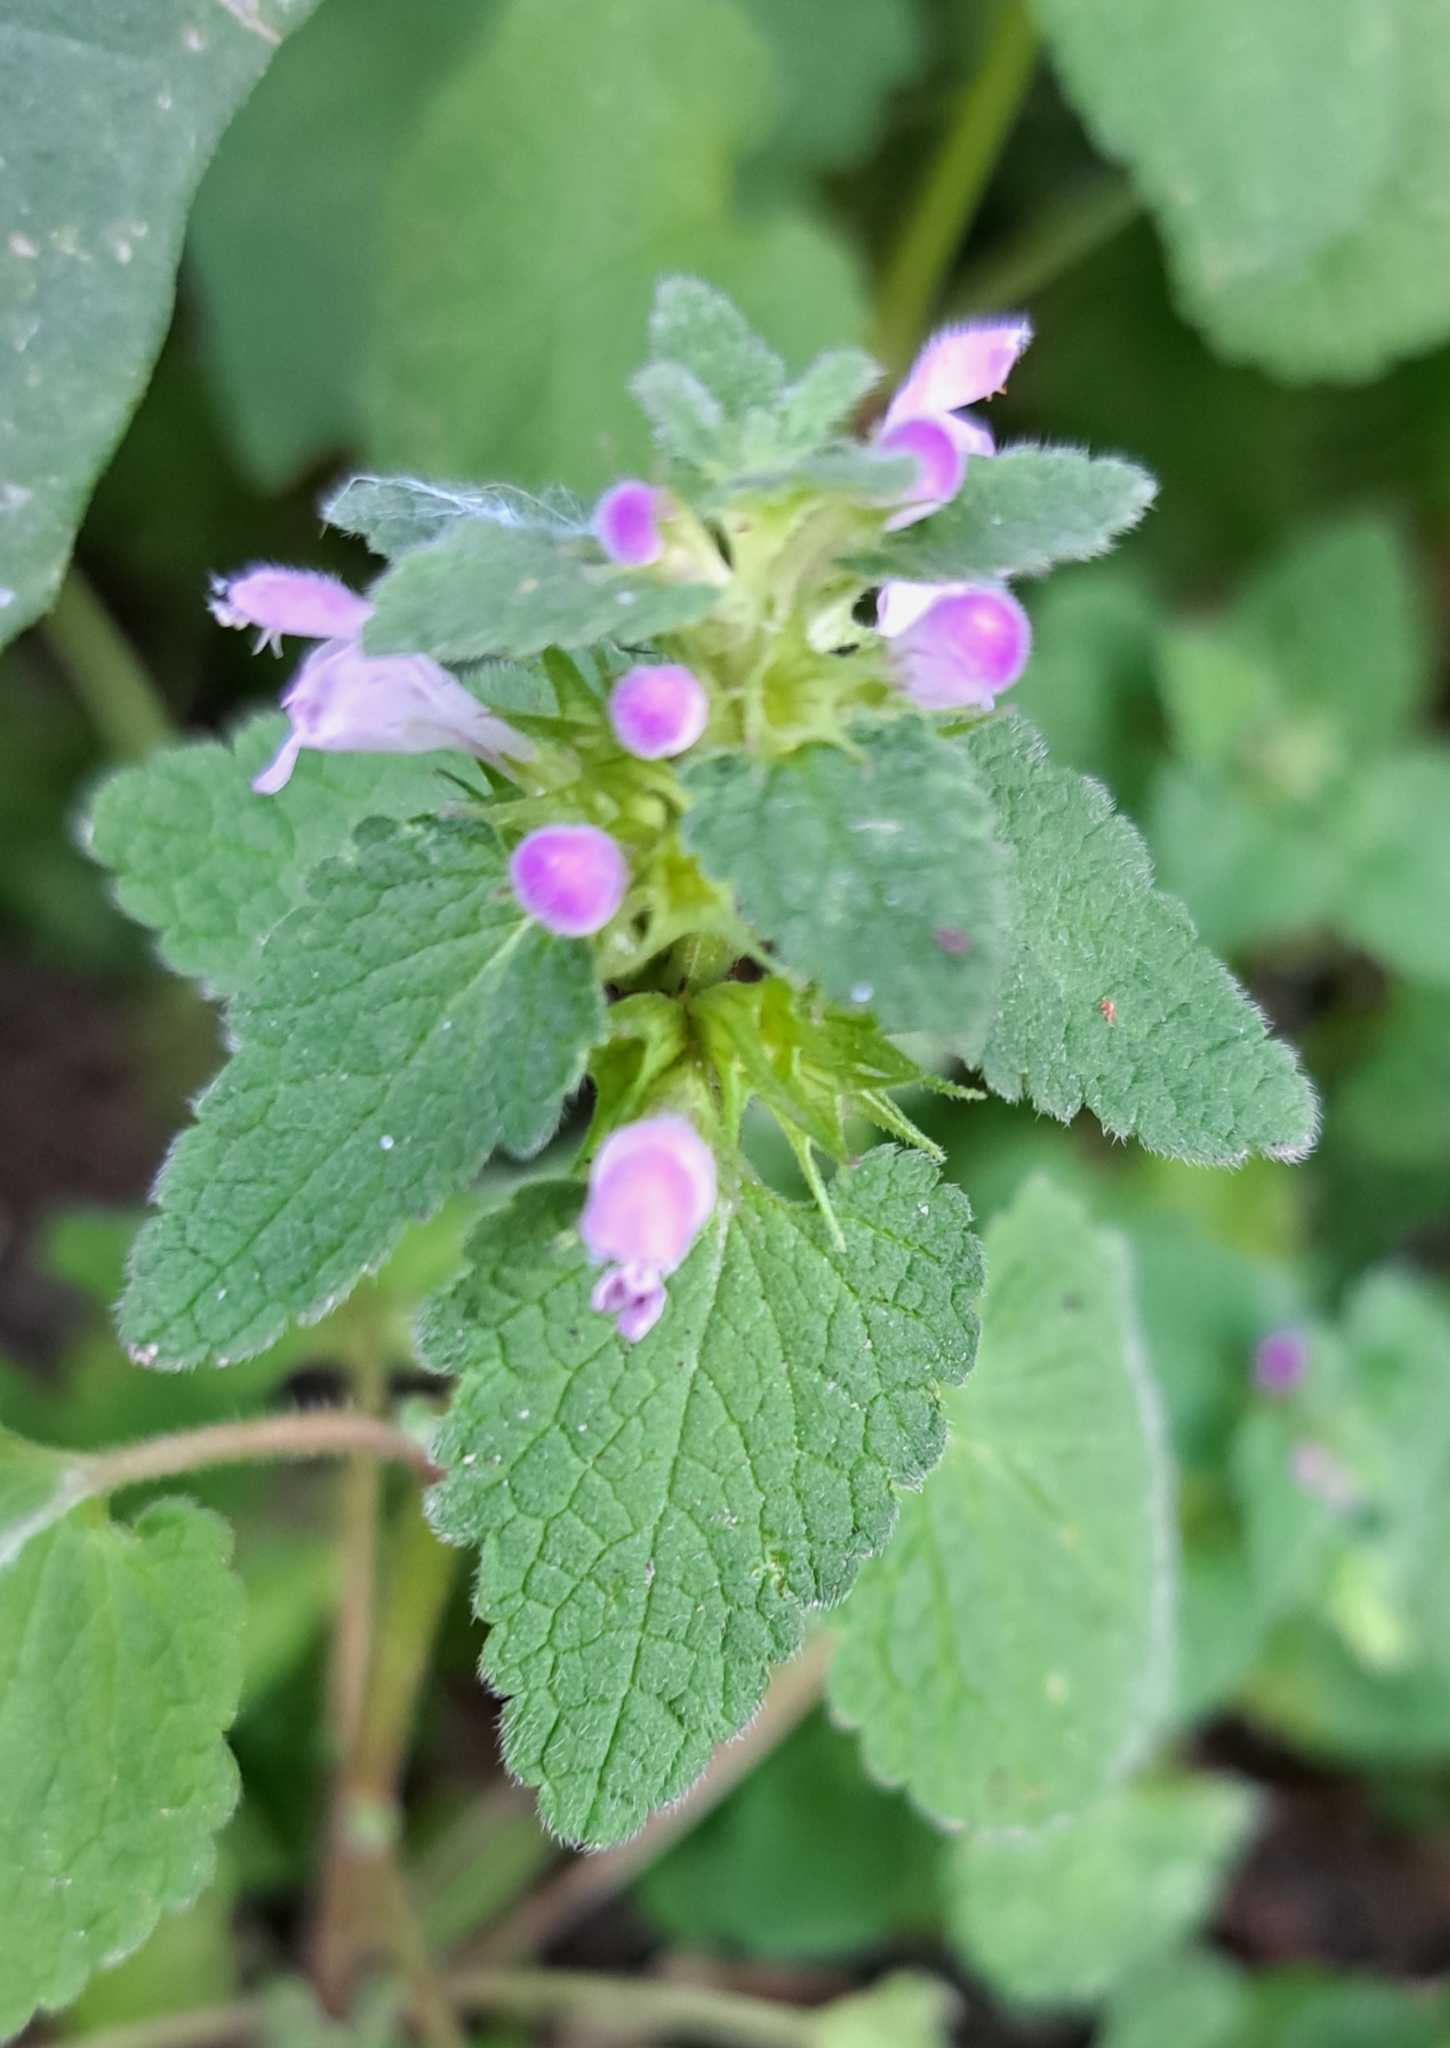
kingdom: Plantae
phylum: Tracheophyta
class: Magnoliopsida
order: Lamiales
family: Lamiaceae
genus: Lamium
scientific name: Lamium purpureum
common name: Red dead-nettle
